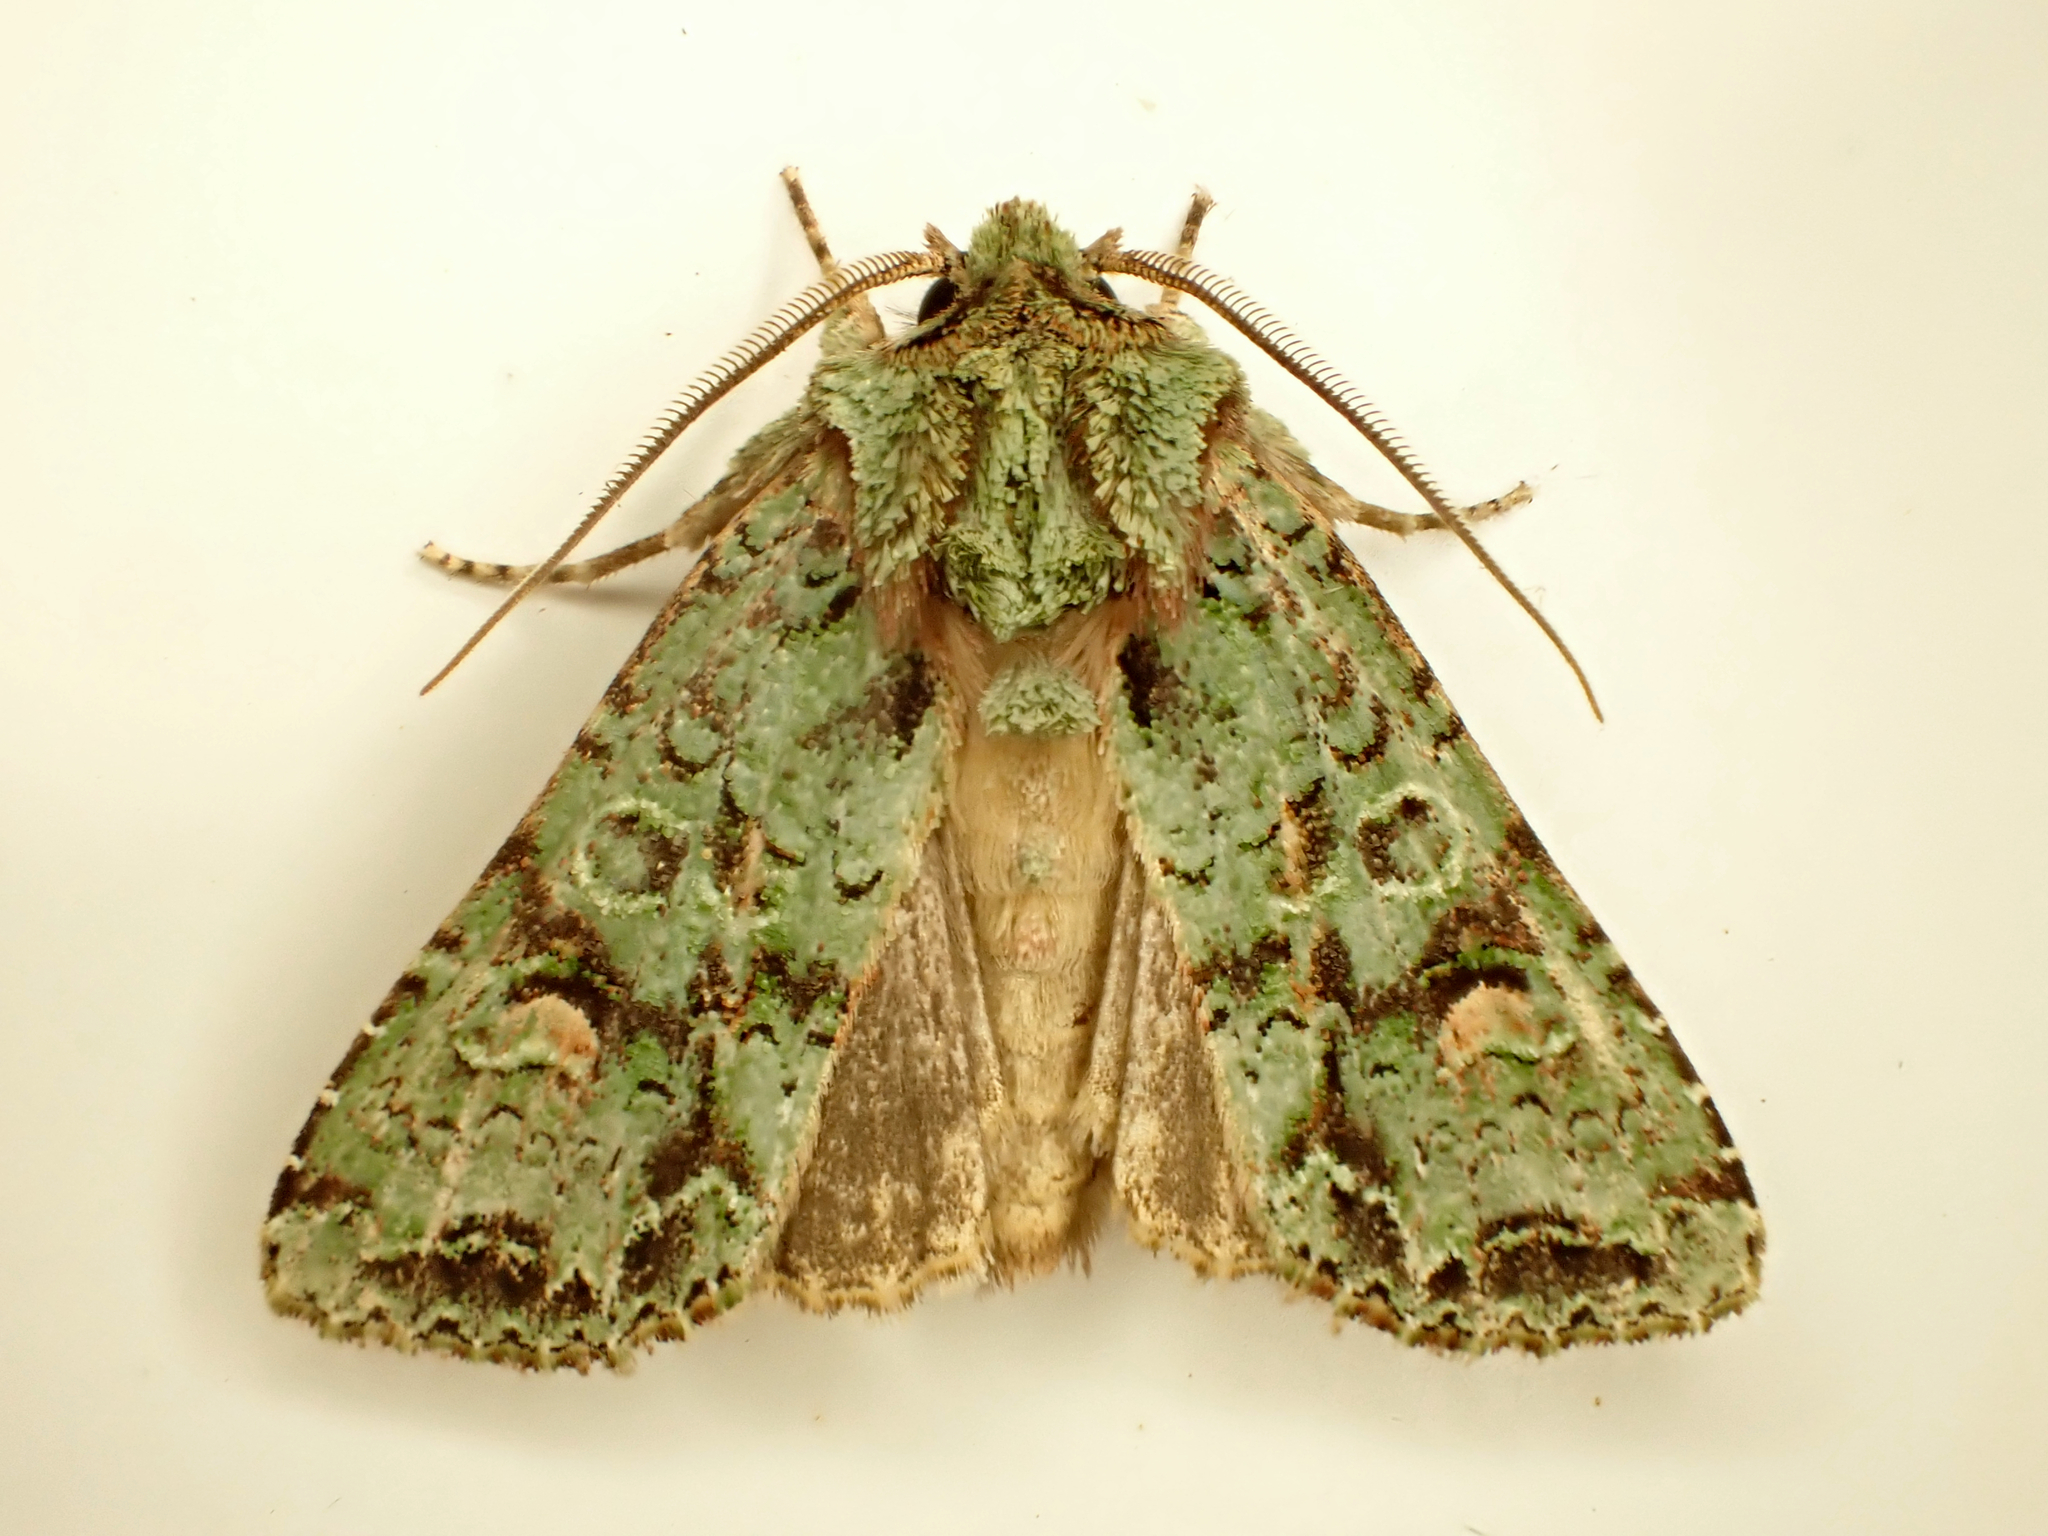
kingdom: Animalia
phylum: Arthropoda
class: Insecta
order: Lepidoptera
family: Noctuidae
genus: Ichneutica
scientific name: Ichneutica
